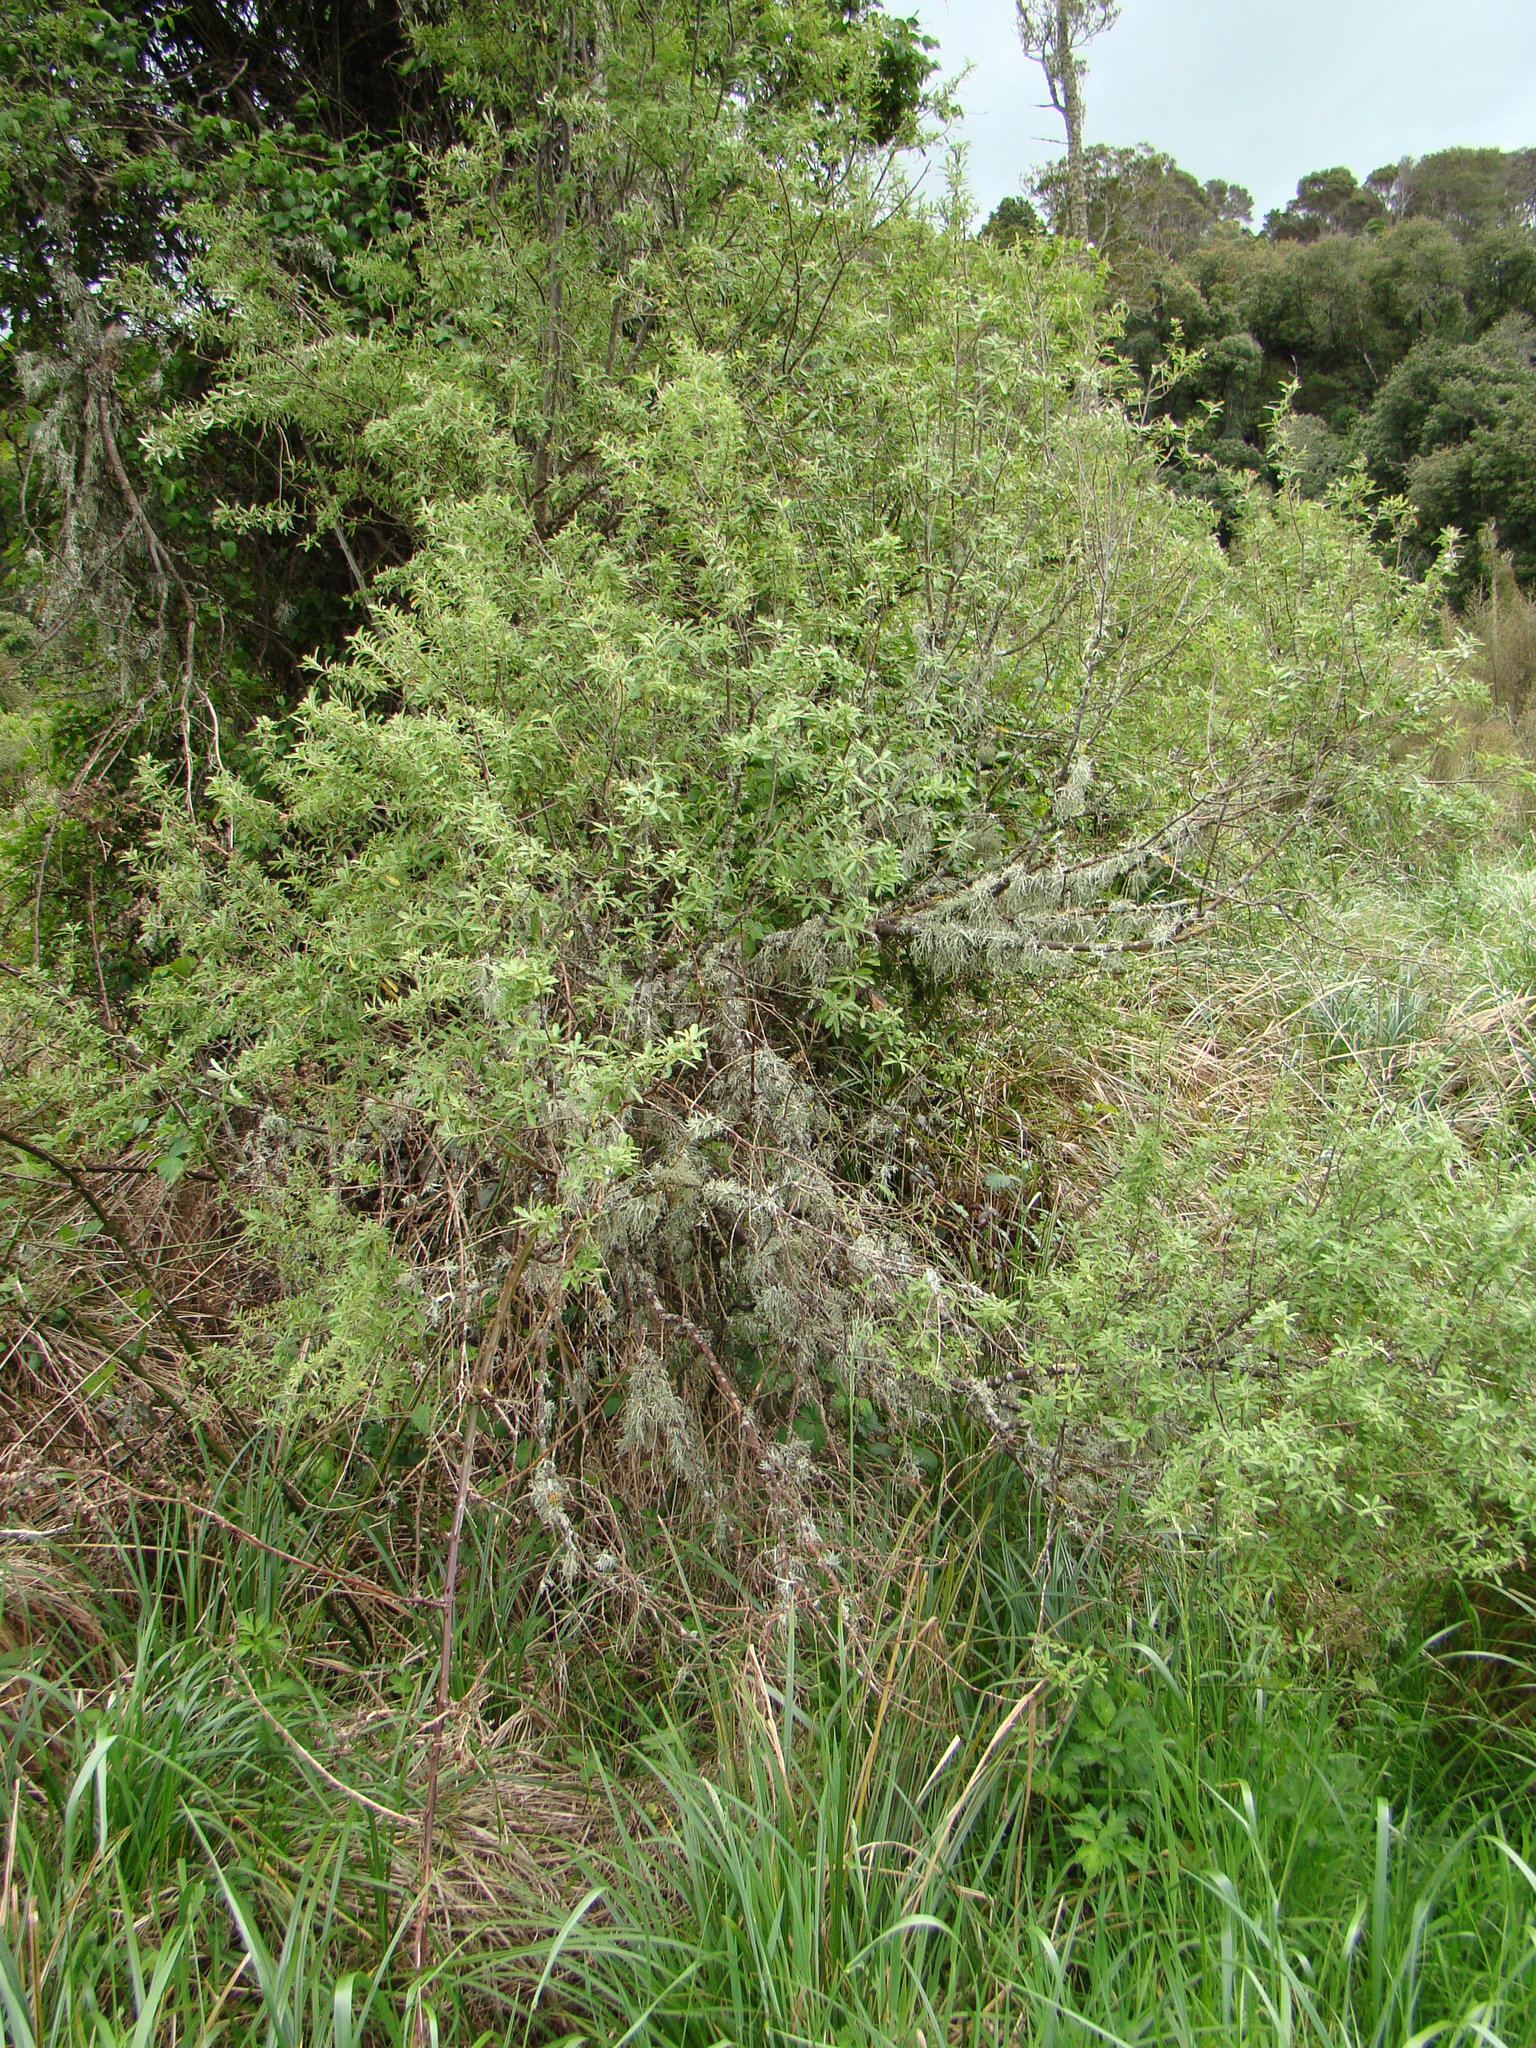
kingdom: Plantae
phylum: Tracheophyta
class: Magnoliopsida
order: Malvales
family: Malvaceae
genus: Hoheria
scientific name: Hoheria angustifolia
